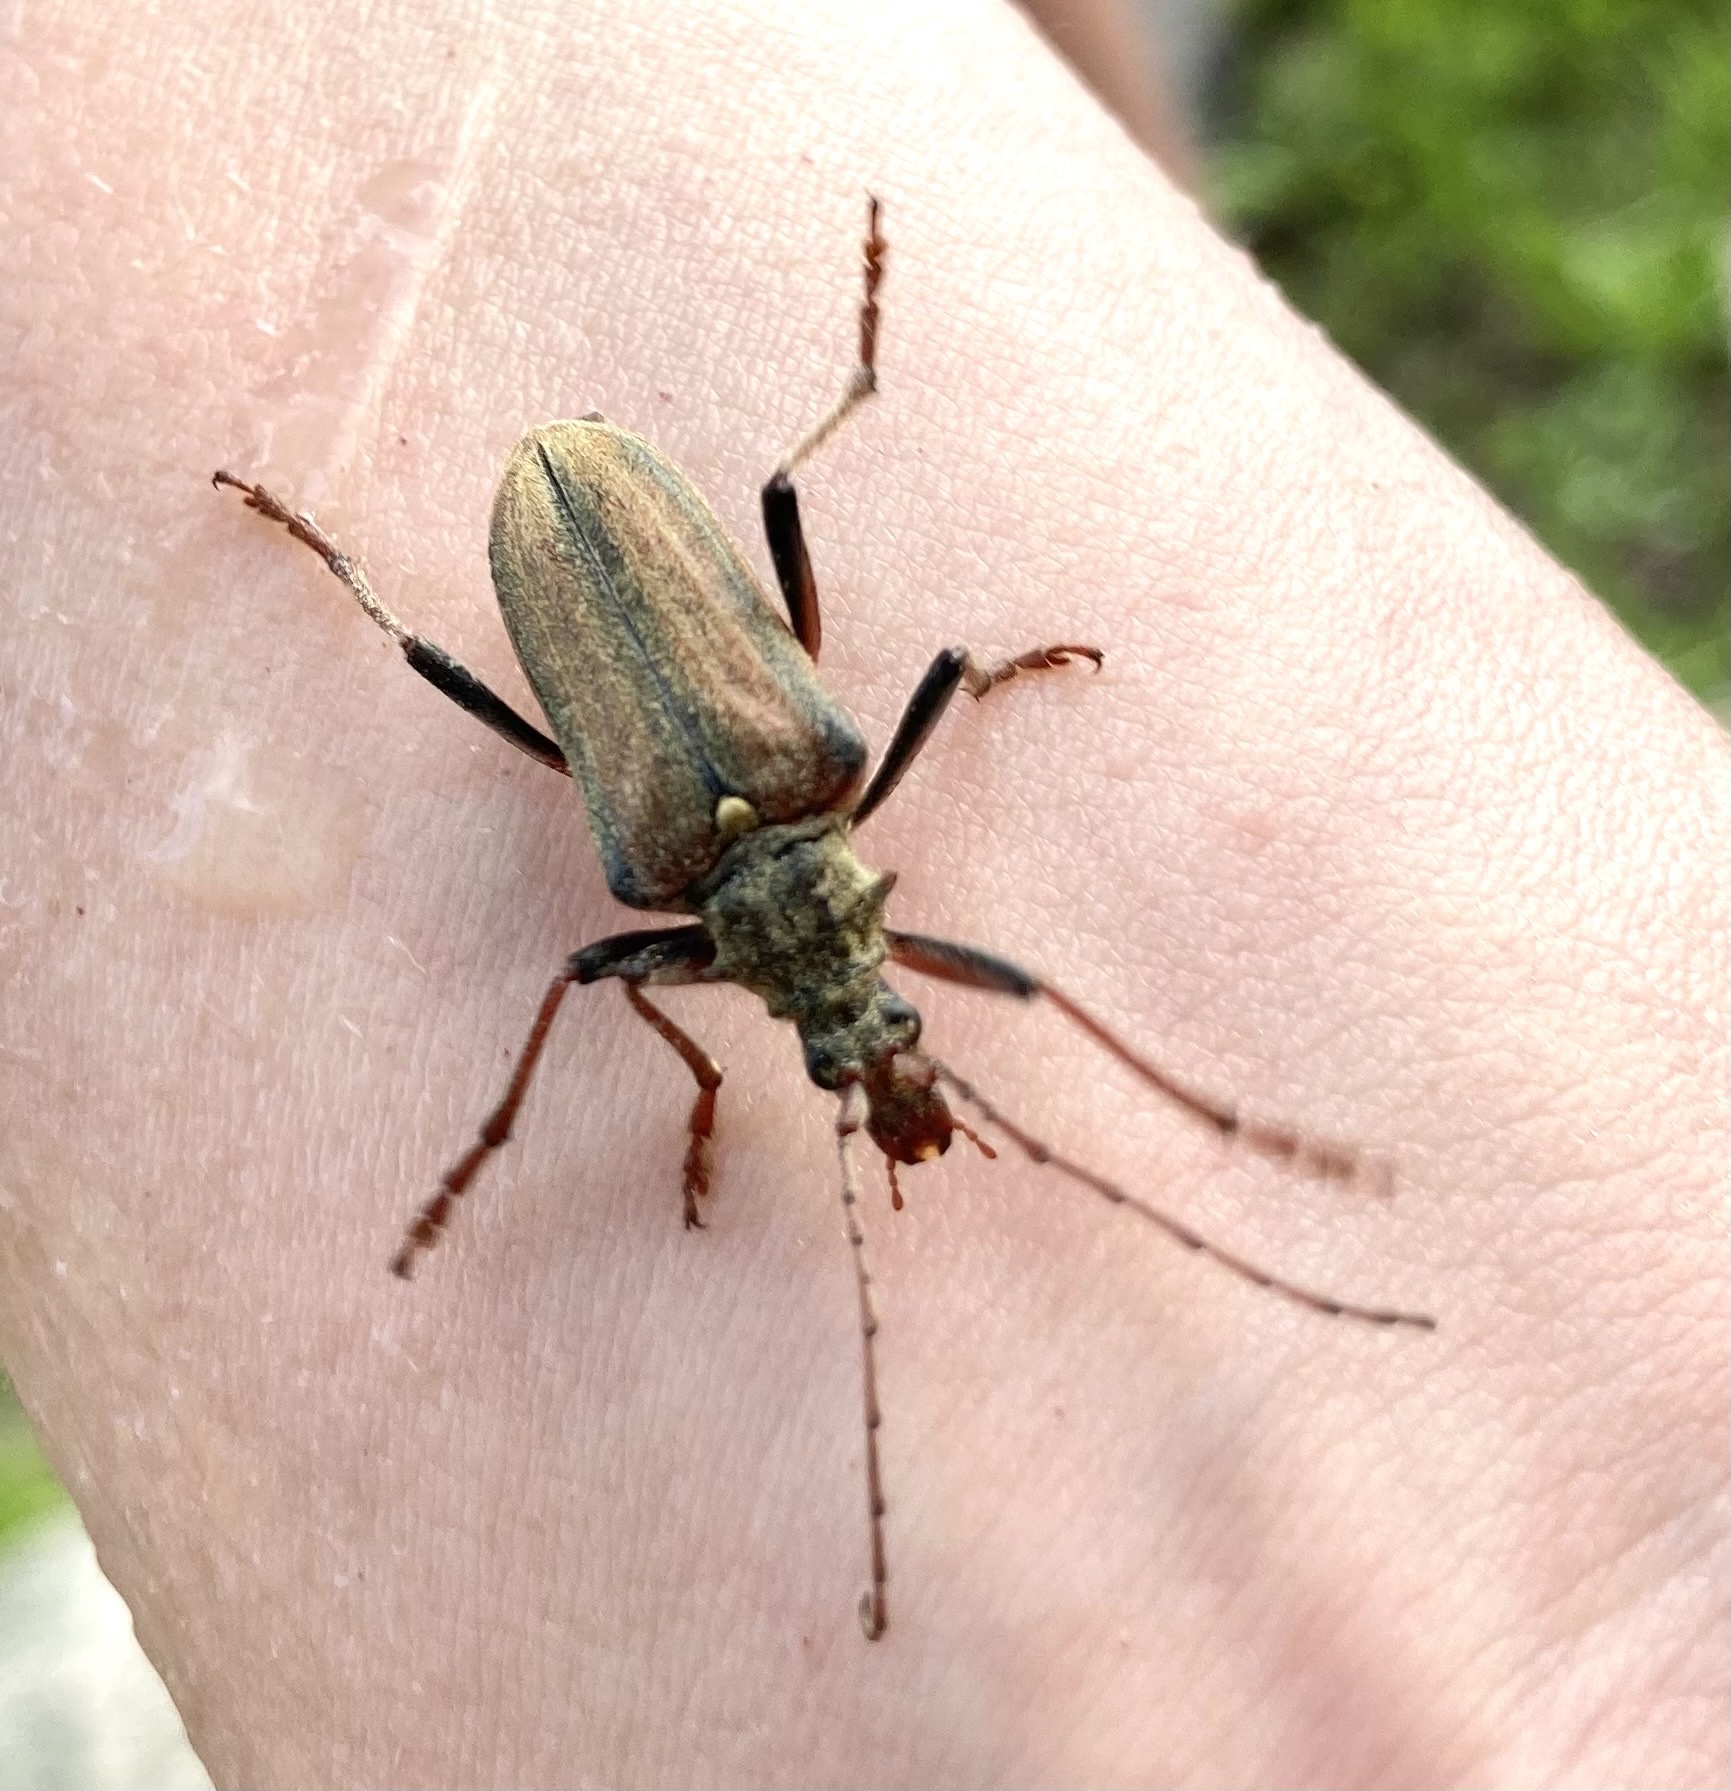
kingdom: Animalia
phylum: Arthropoda
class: Insecta
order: Coleoptera
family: Cerambycidae
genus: Oxymirus
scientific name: Oxymirus cursor
